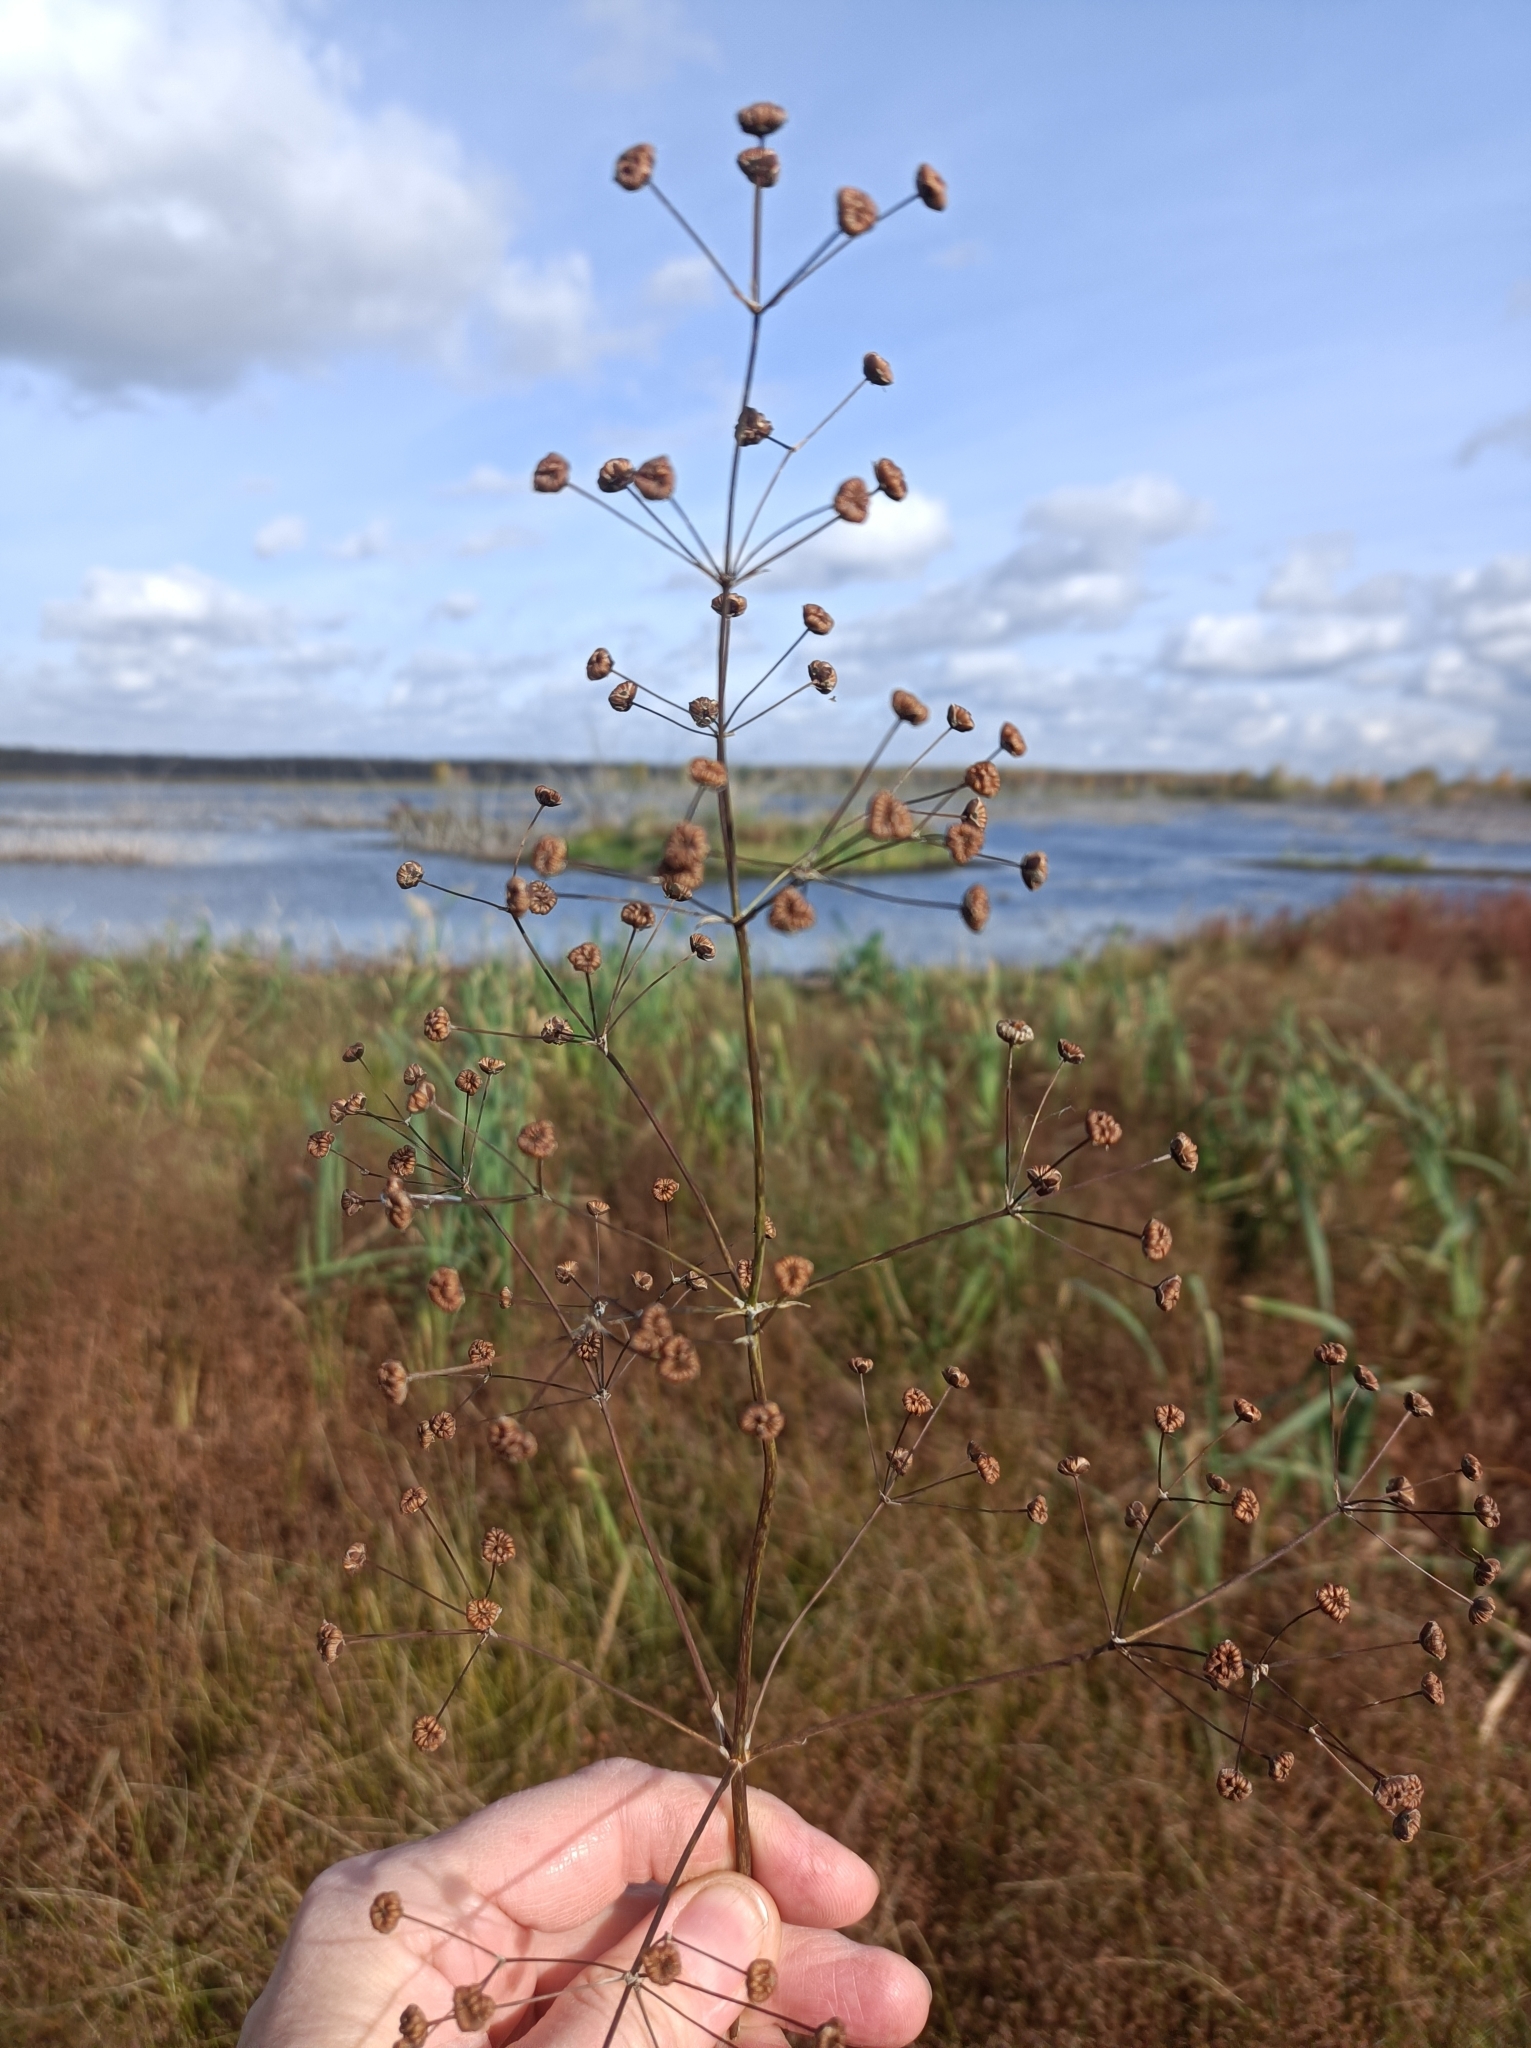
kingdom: Plantae
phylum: Tracheophyta
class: Liliopsida
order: Alismatales
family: Alismataceae
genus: Alisma
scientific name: Alisma plantago-aquatica
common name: Water-plantain
